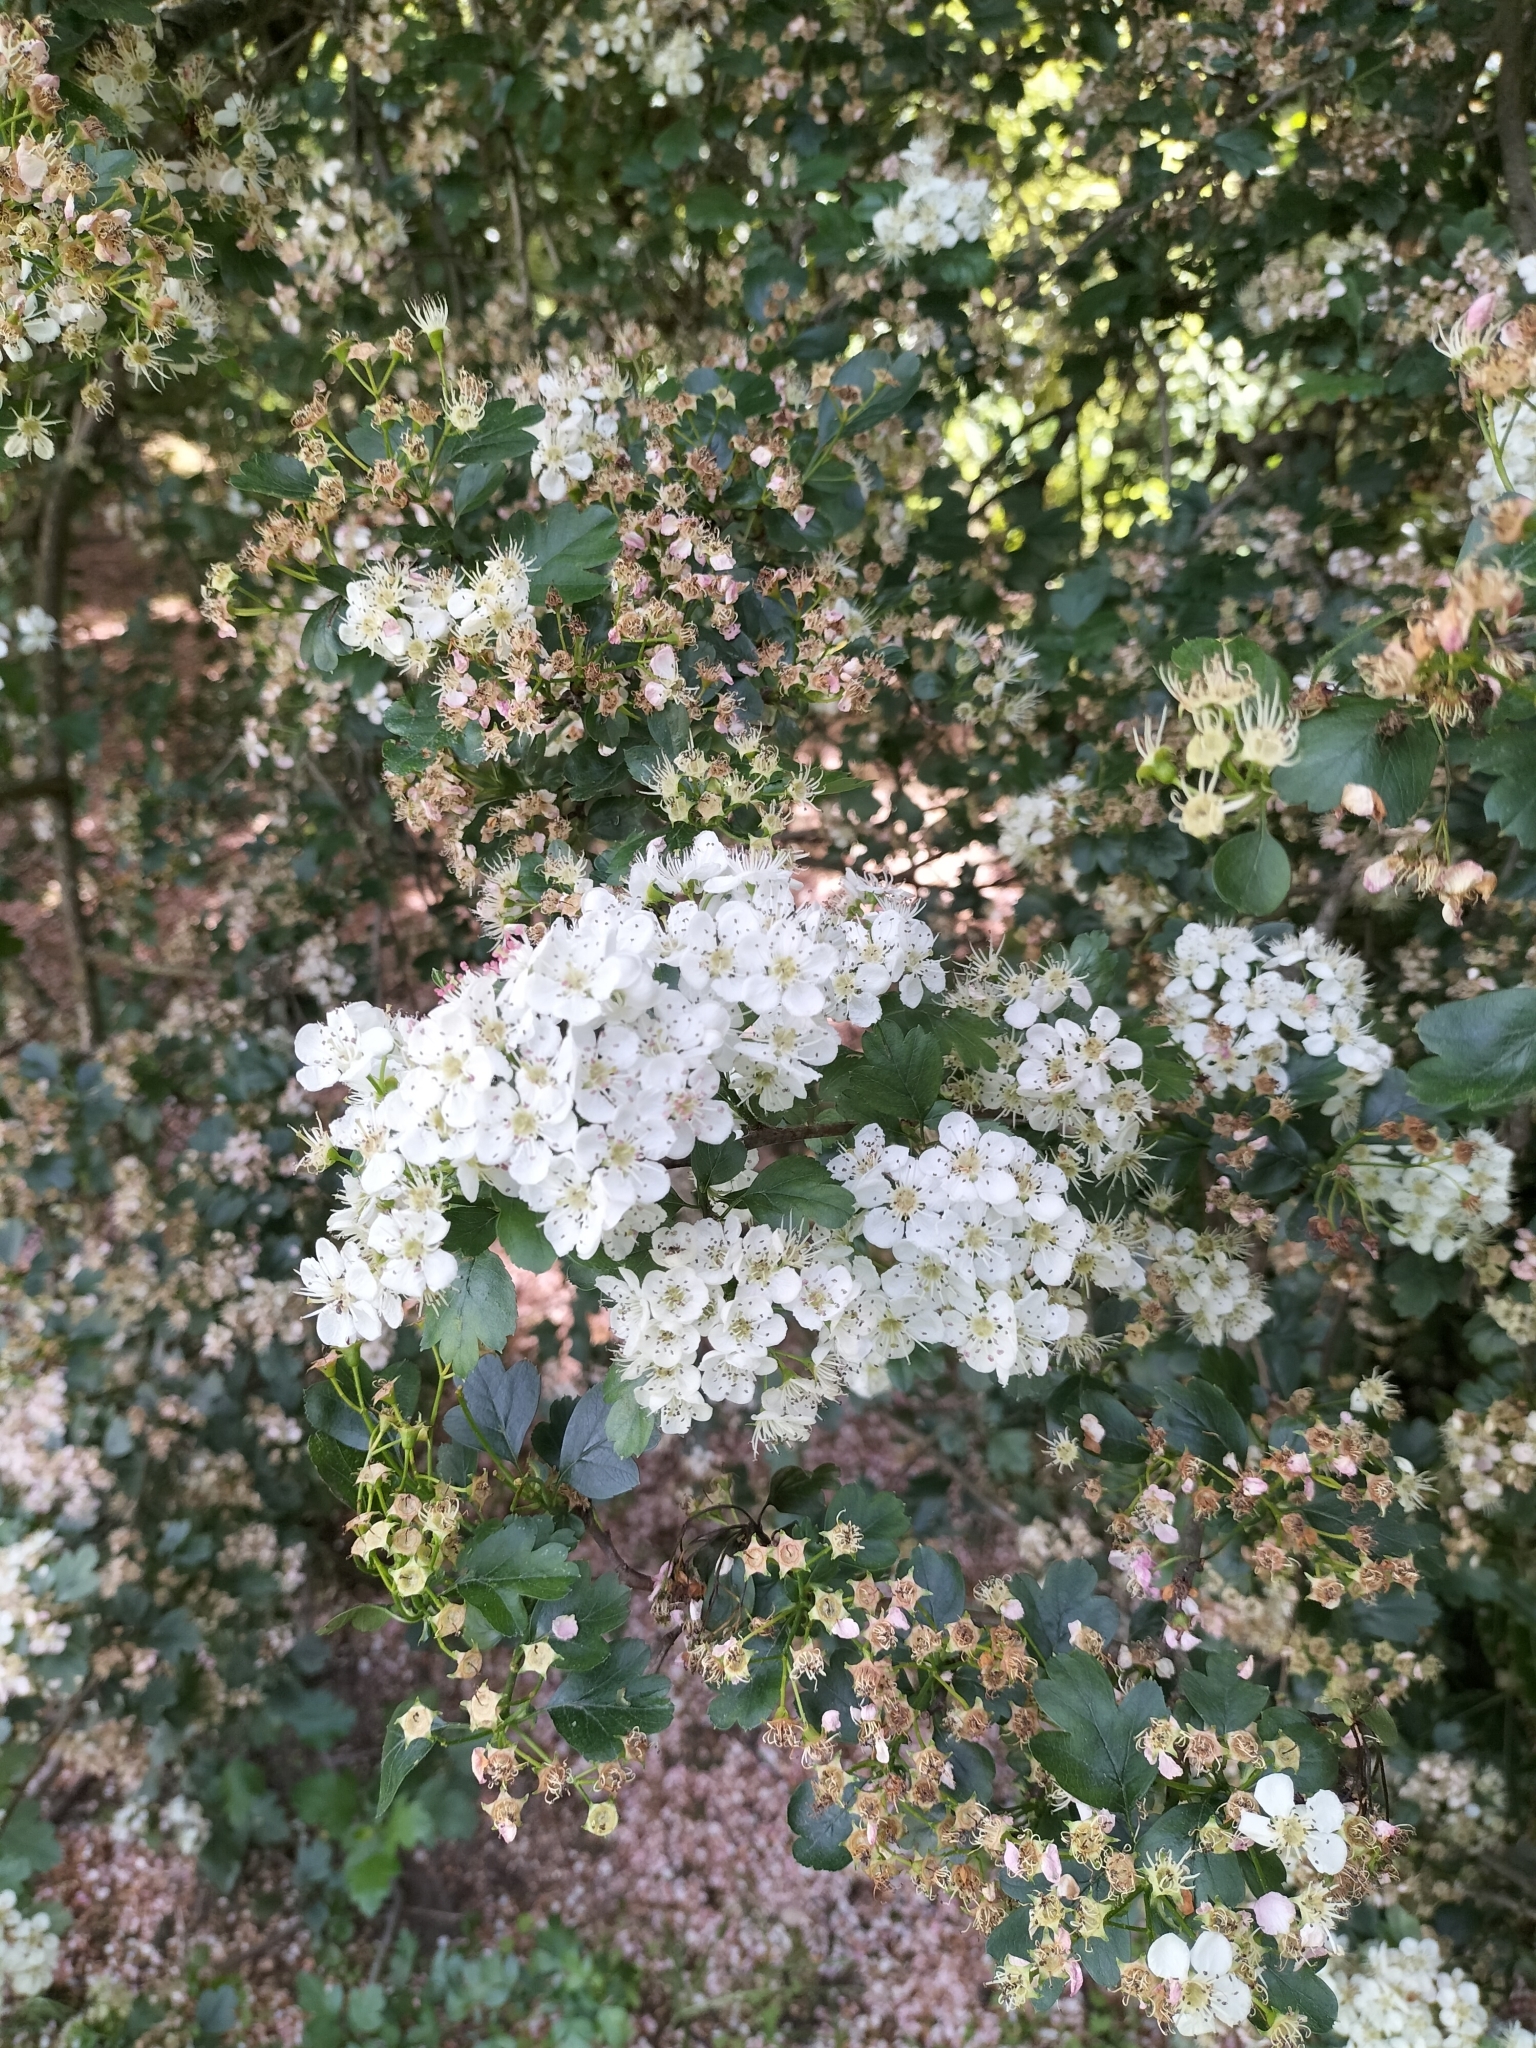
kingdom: Plantae
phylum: Tracheophyta
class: Magnoliopsida
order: Rosales
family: Rosaceae
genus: Crataegus
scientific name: Crataegus monogyna
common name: Hawthorn
